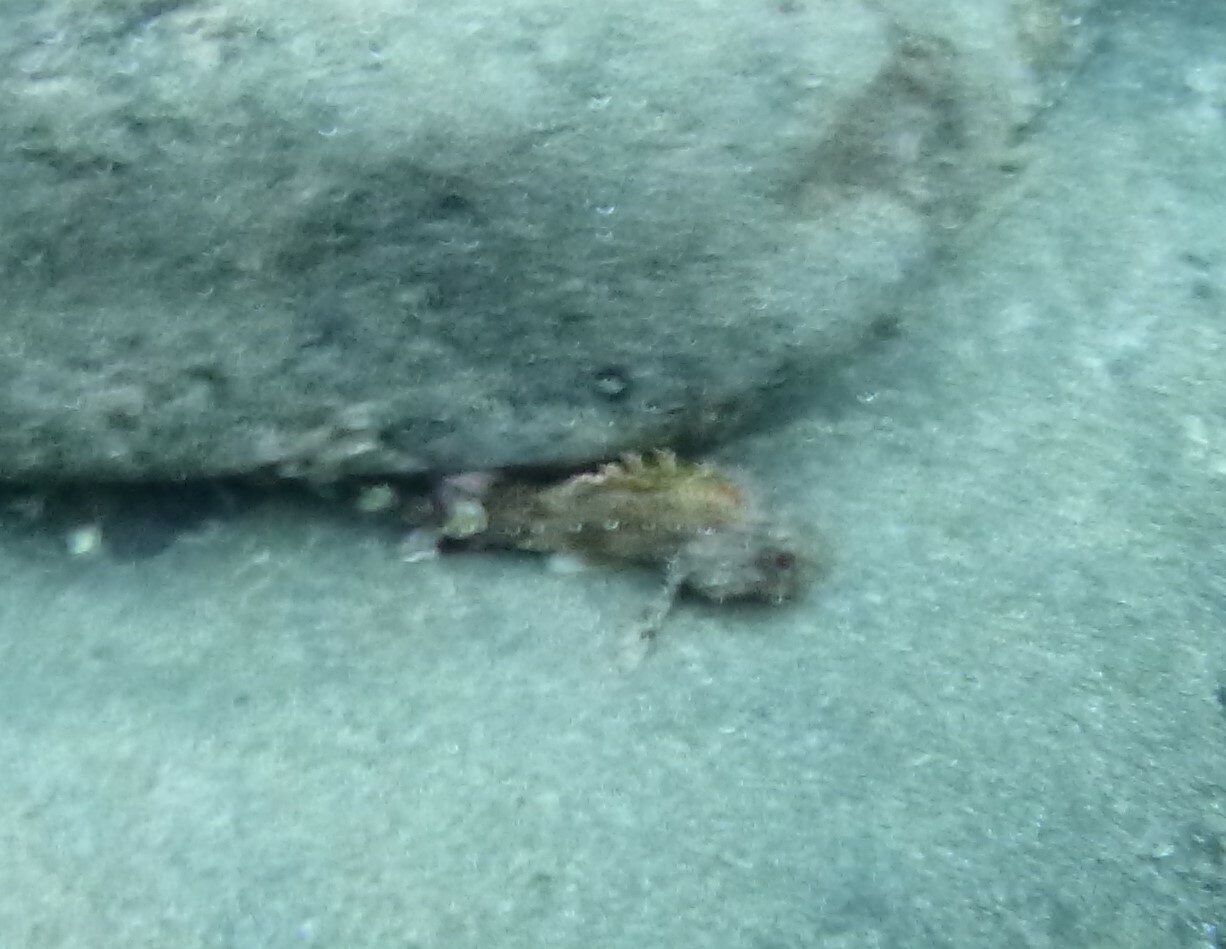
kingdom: Animalia
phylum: Chordata
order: Scorpaeniformes
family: Scorpaenidae
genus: Scorpaena
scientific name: Scorpaena maderensis
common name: Madeira rockfish
